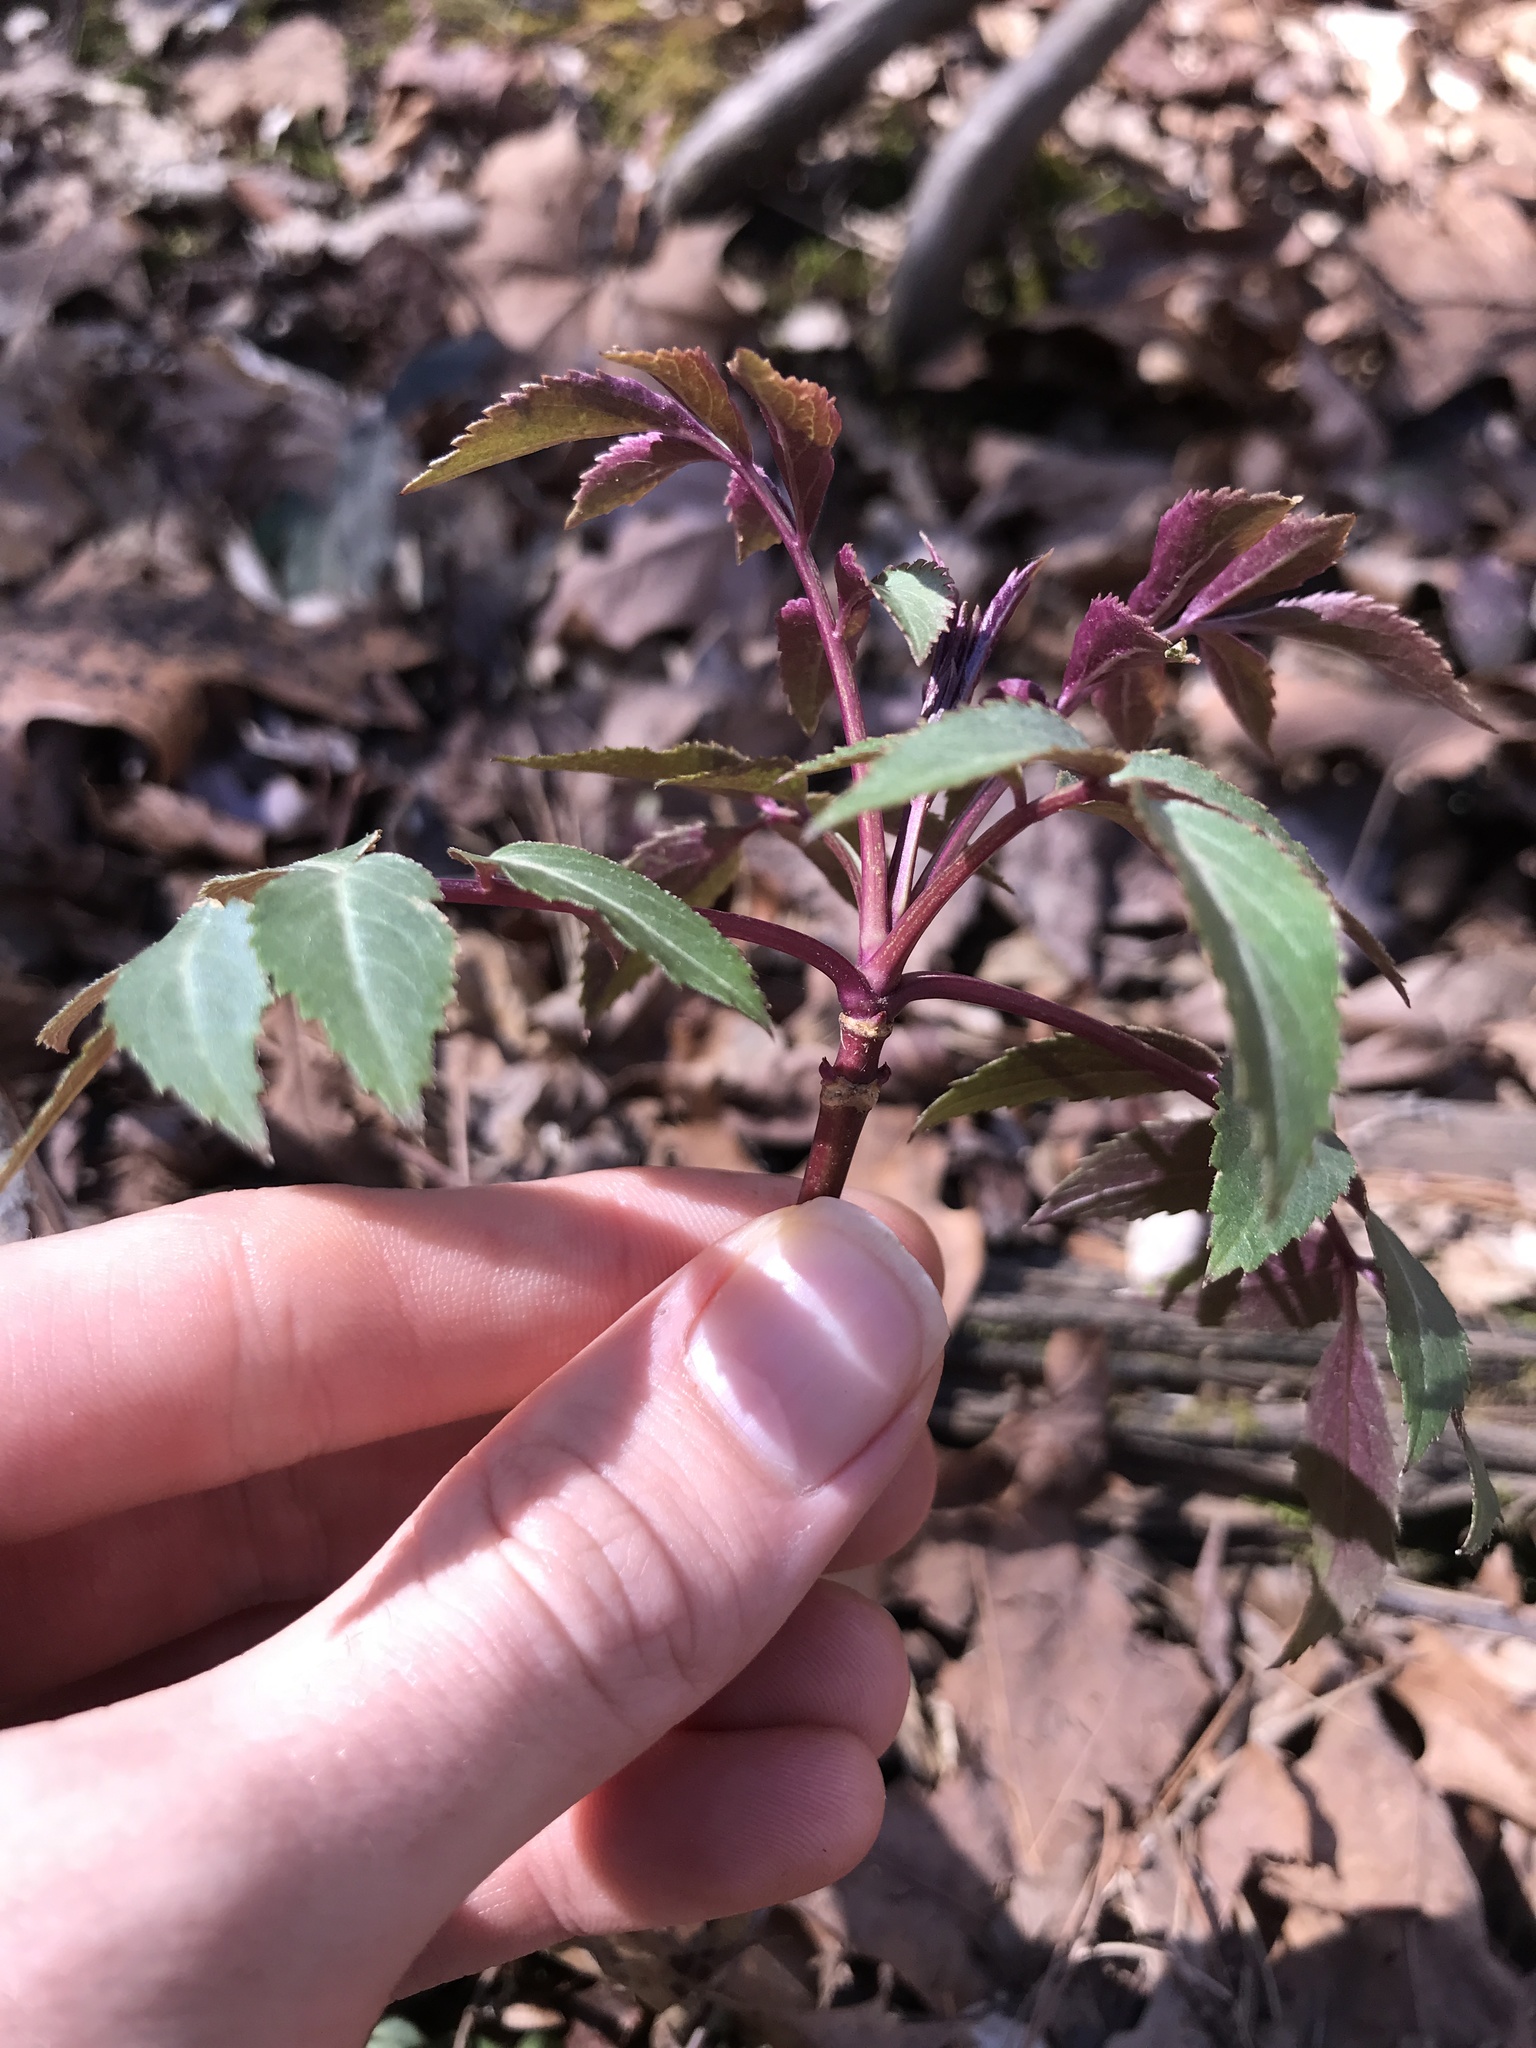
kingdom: Plantae
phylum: Tracheophyta
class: Magnoliopsida
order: Dipsacales
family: Viburnaceae
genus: Sambucus
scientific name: Sambucus canadensis
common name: American elder
